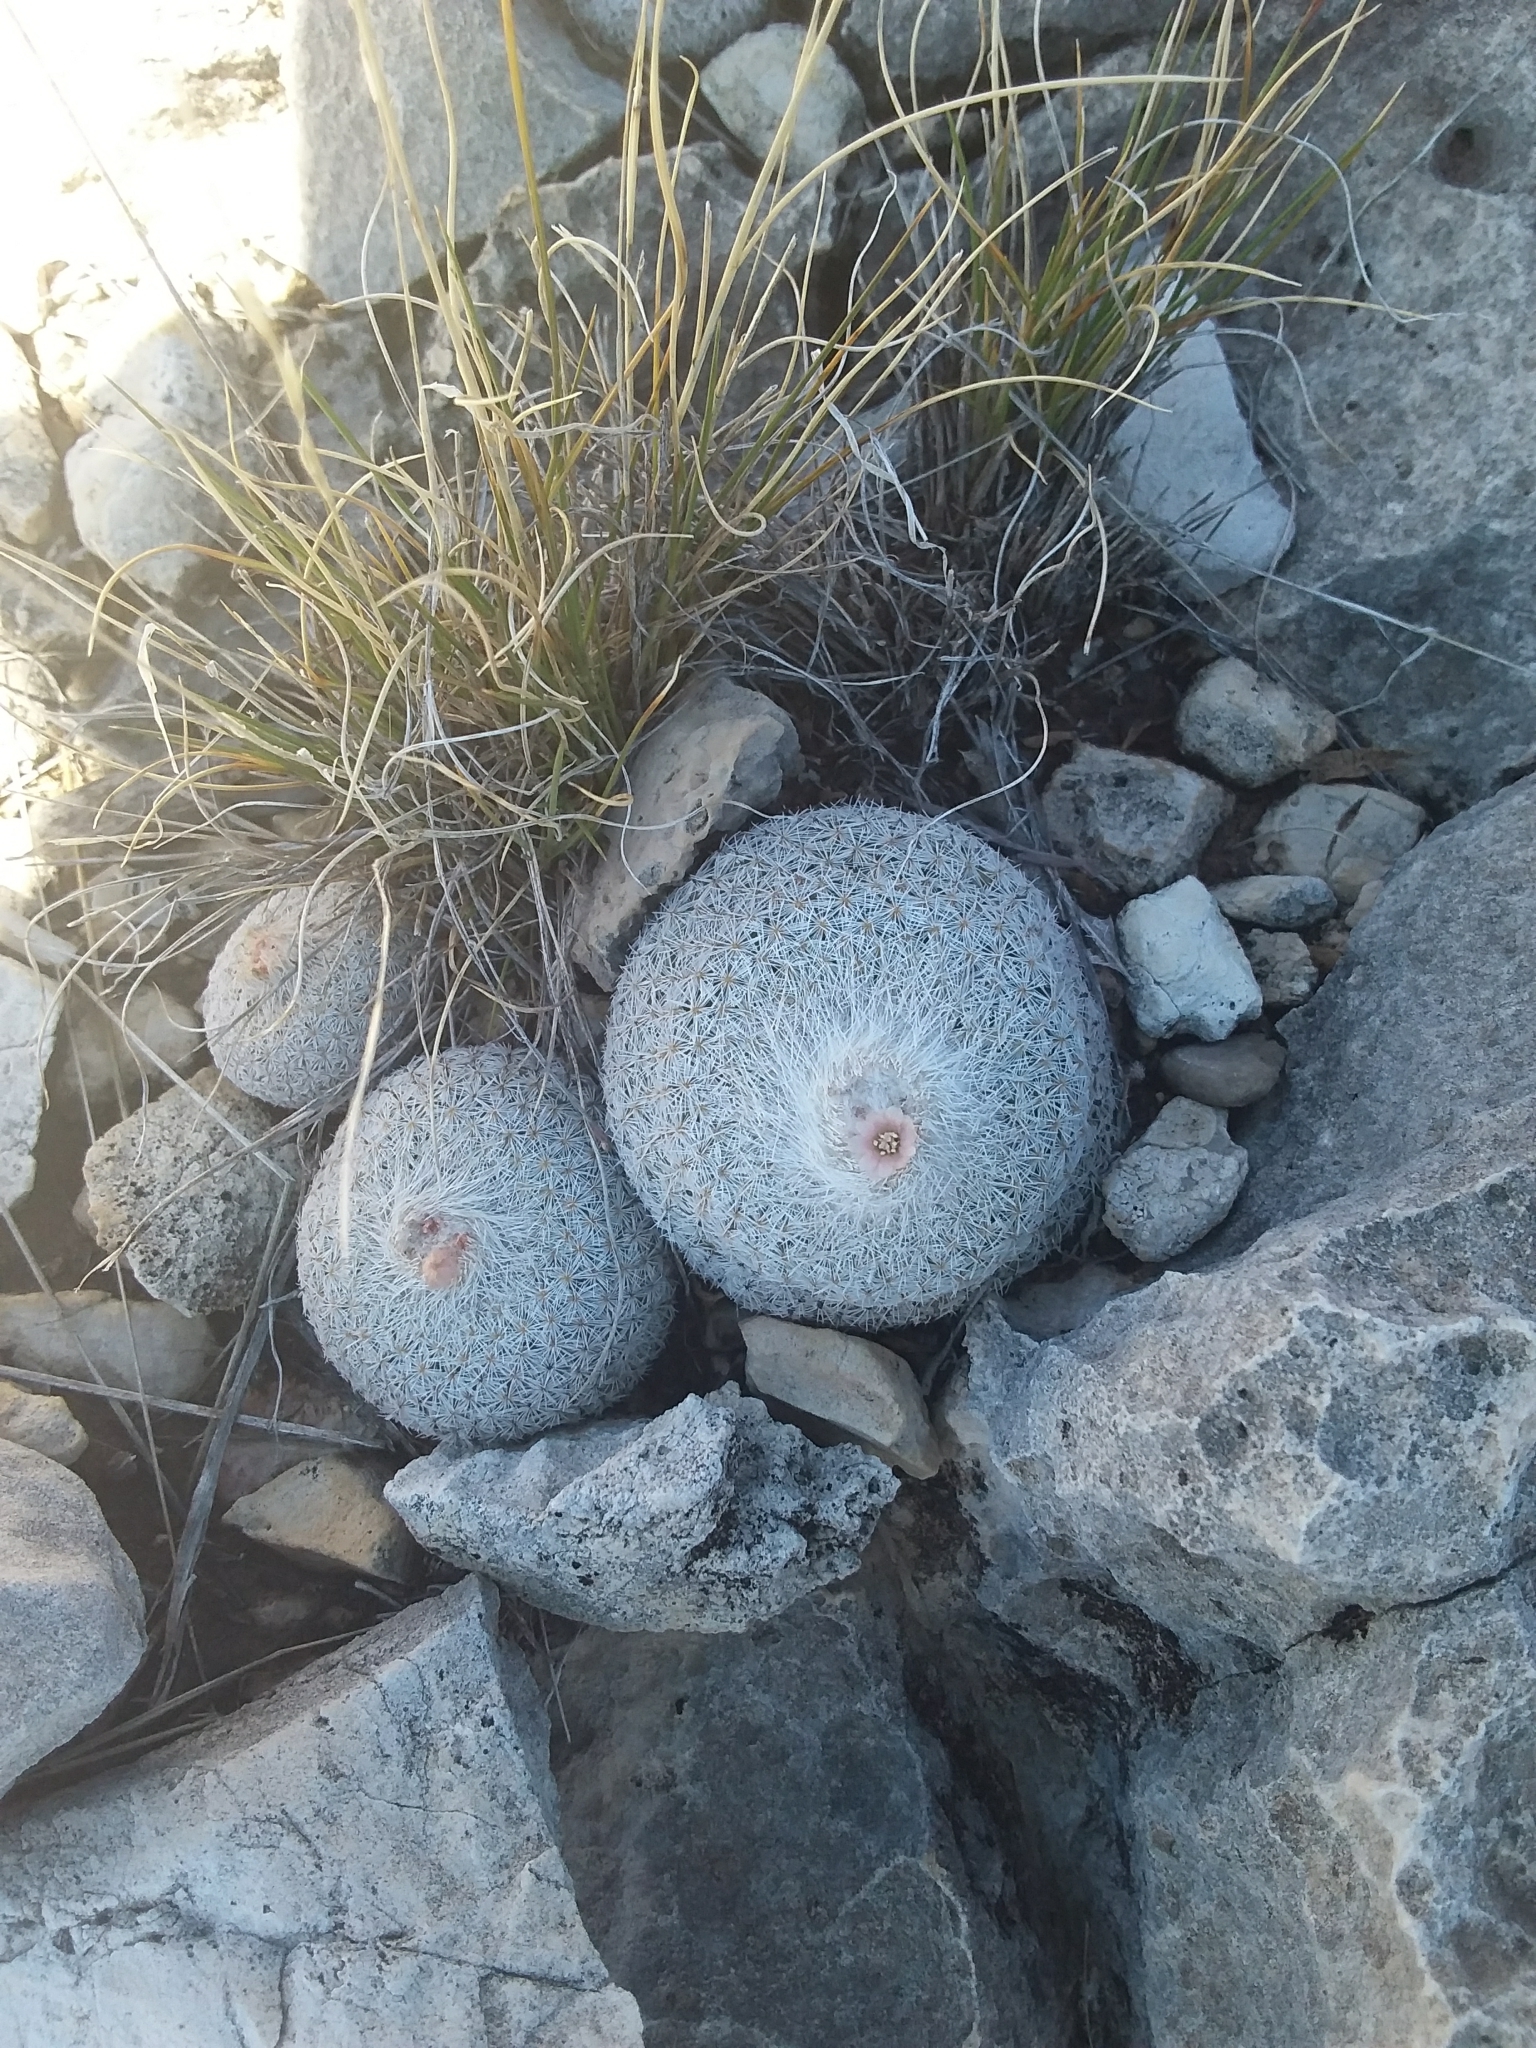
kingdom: Plantae
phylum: Tracheophyta
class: Magnoliopsida
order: Caryophyllales
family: Cactaceae
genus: Epithelantha
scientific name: Epithelantha micromeris
